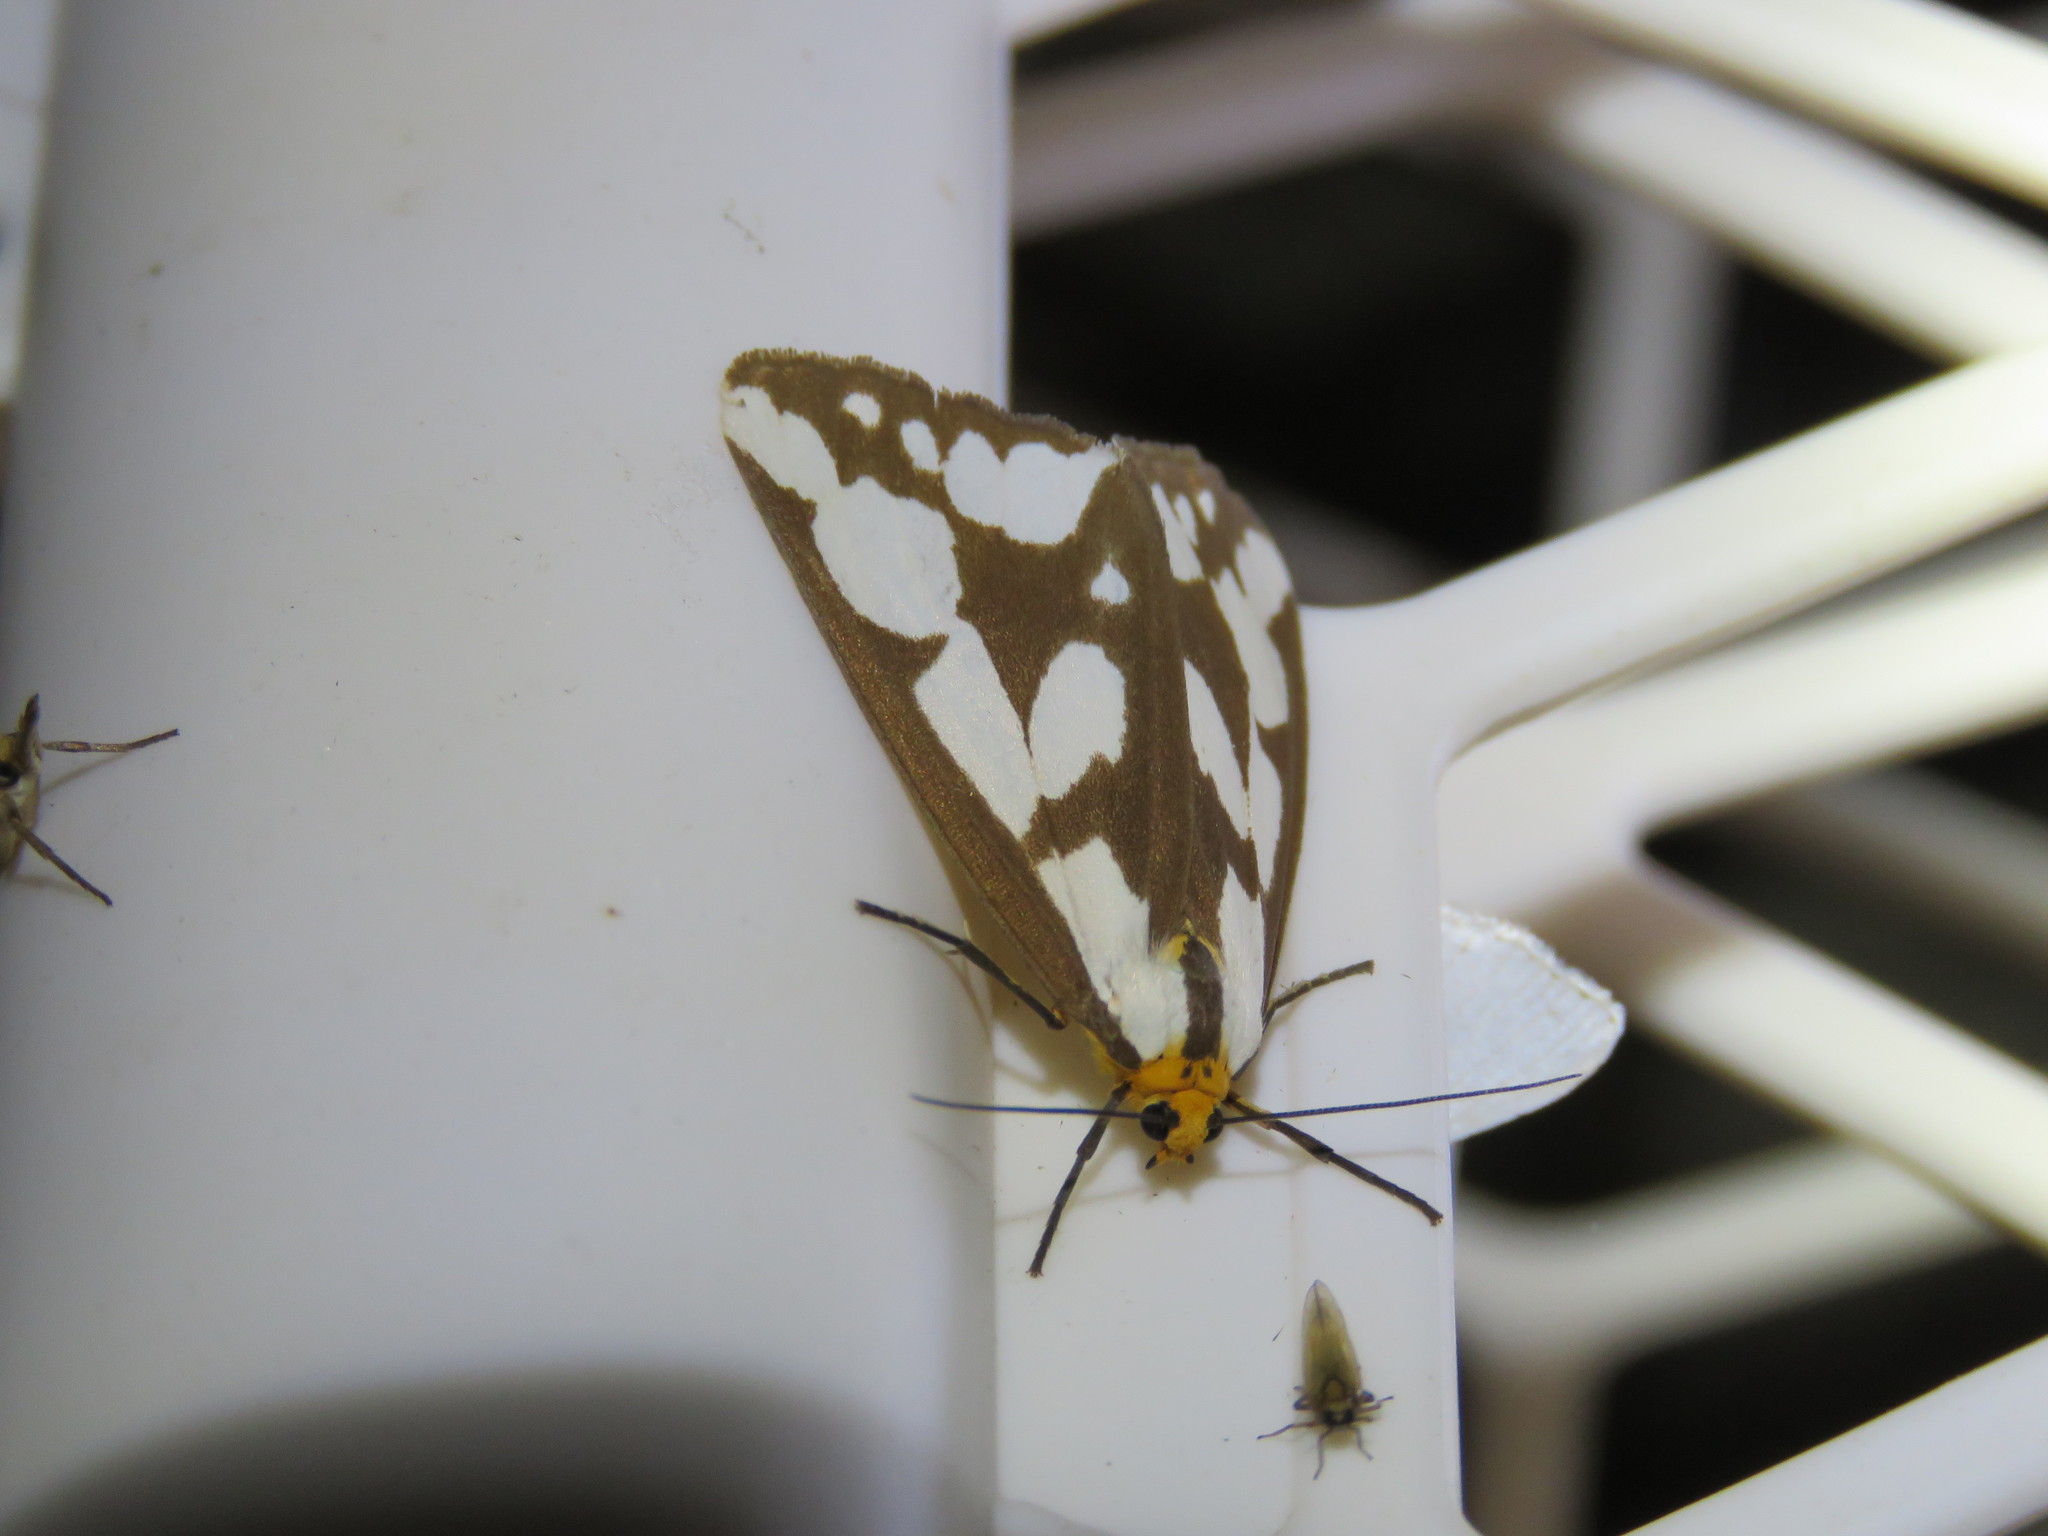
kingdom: Animalia
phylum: Arthropoda
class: Insecta
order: Lepidoptera
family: Erebidae
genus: Haploa
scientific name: Haploa confusa
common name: Confused haploa moth
